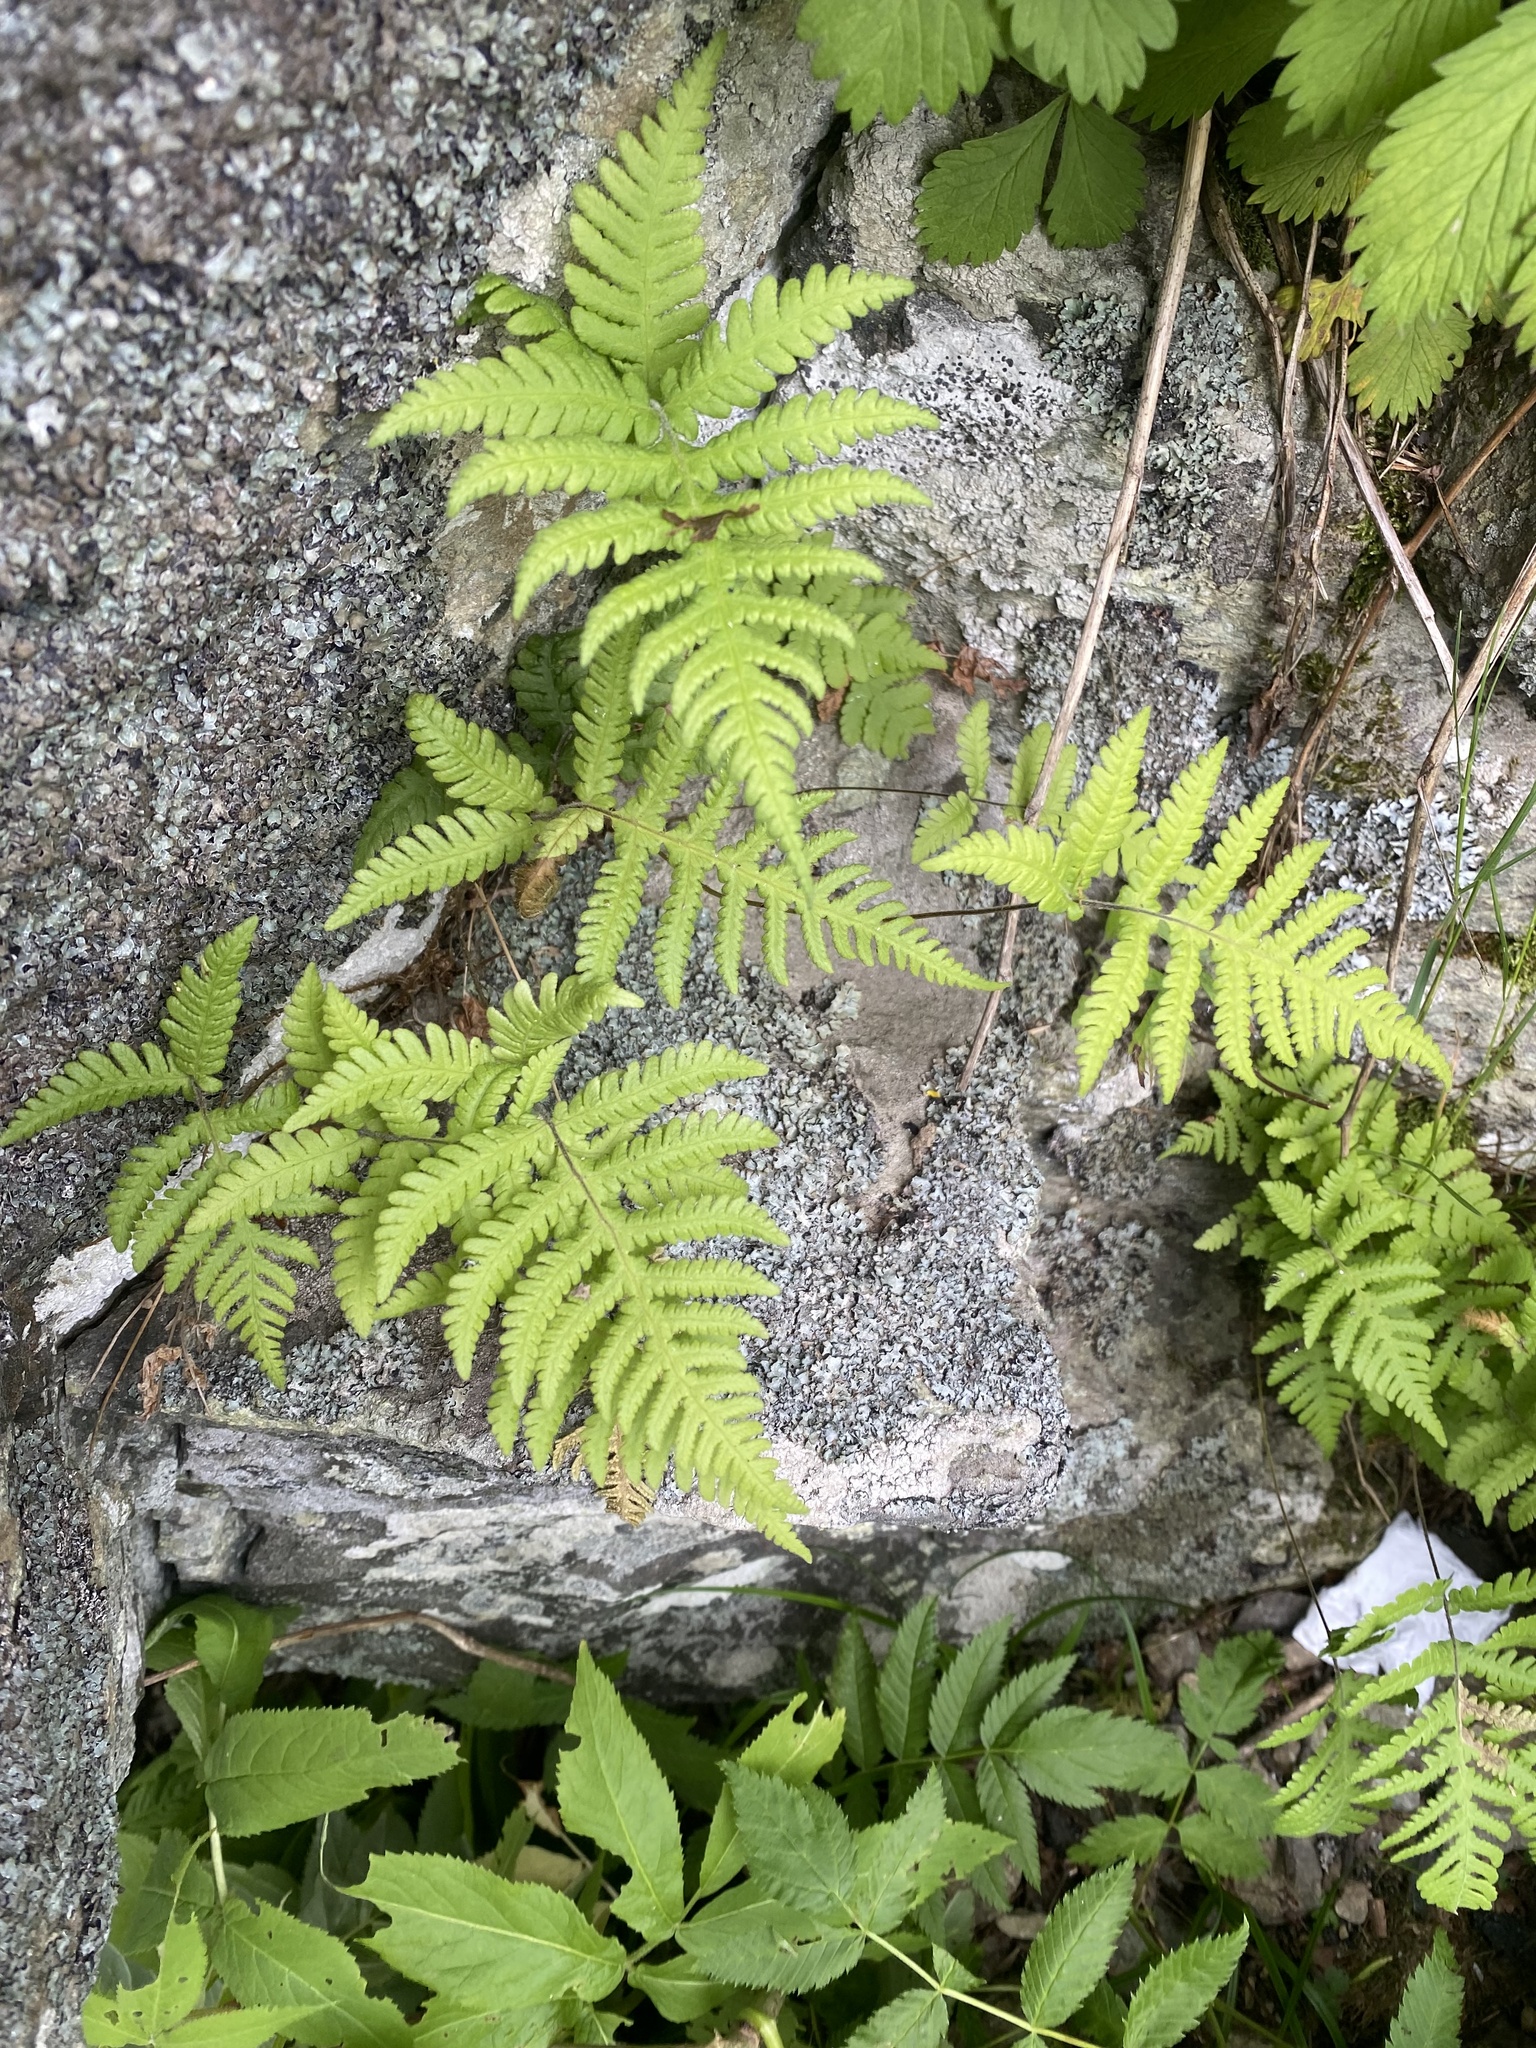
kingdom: Plantae
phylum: Tracheophyta
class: Polypodiopsida
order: Polypodiales
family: Thelypteridaceae
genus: Phegopteris
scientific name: Phegopteris connectilis
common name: Beech fern
